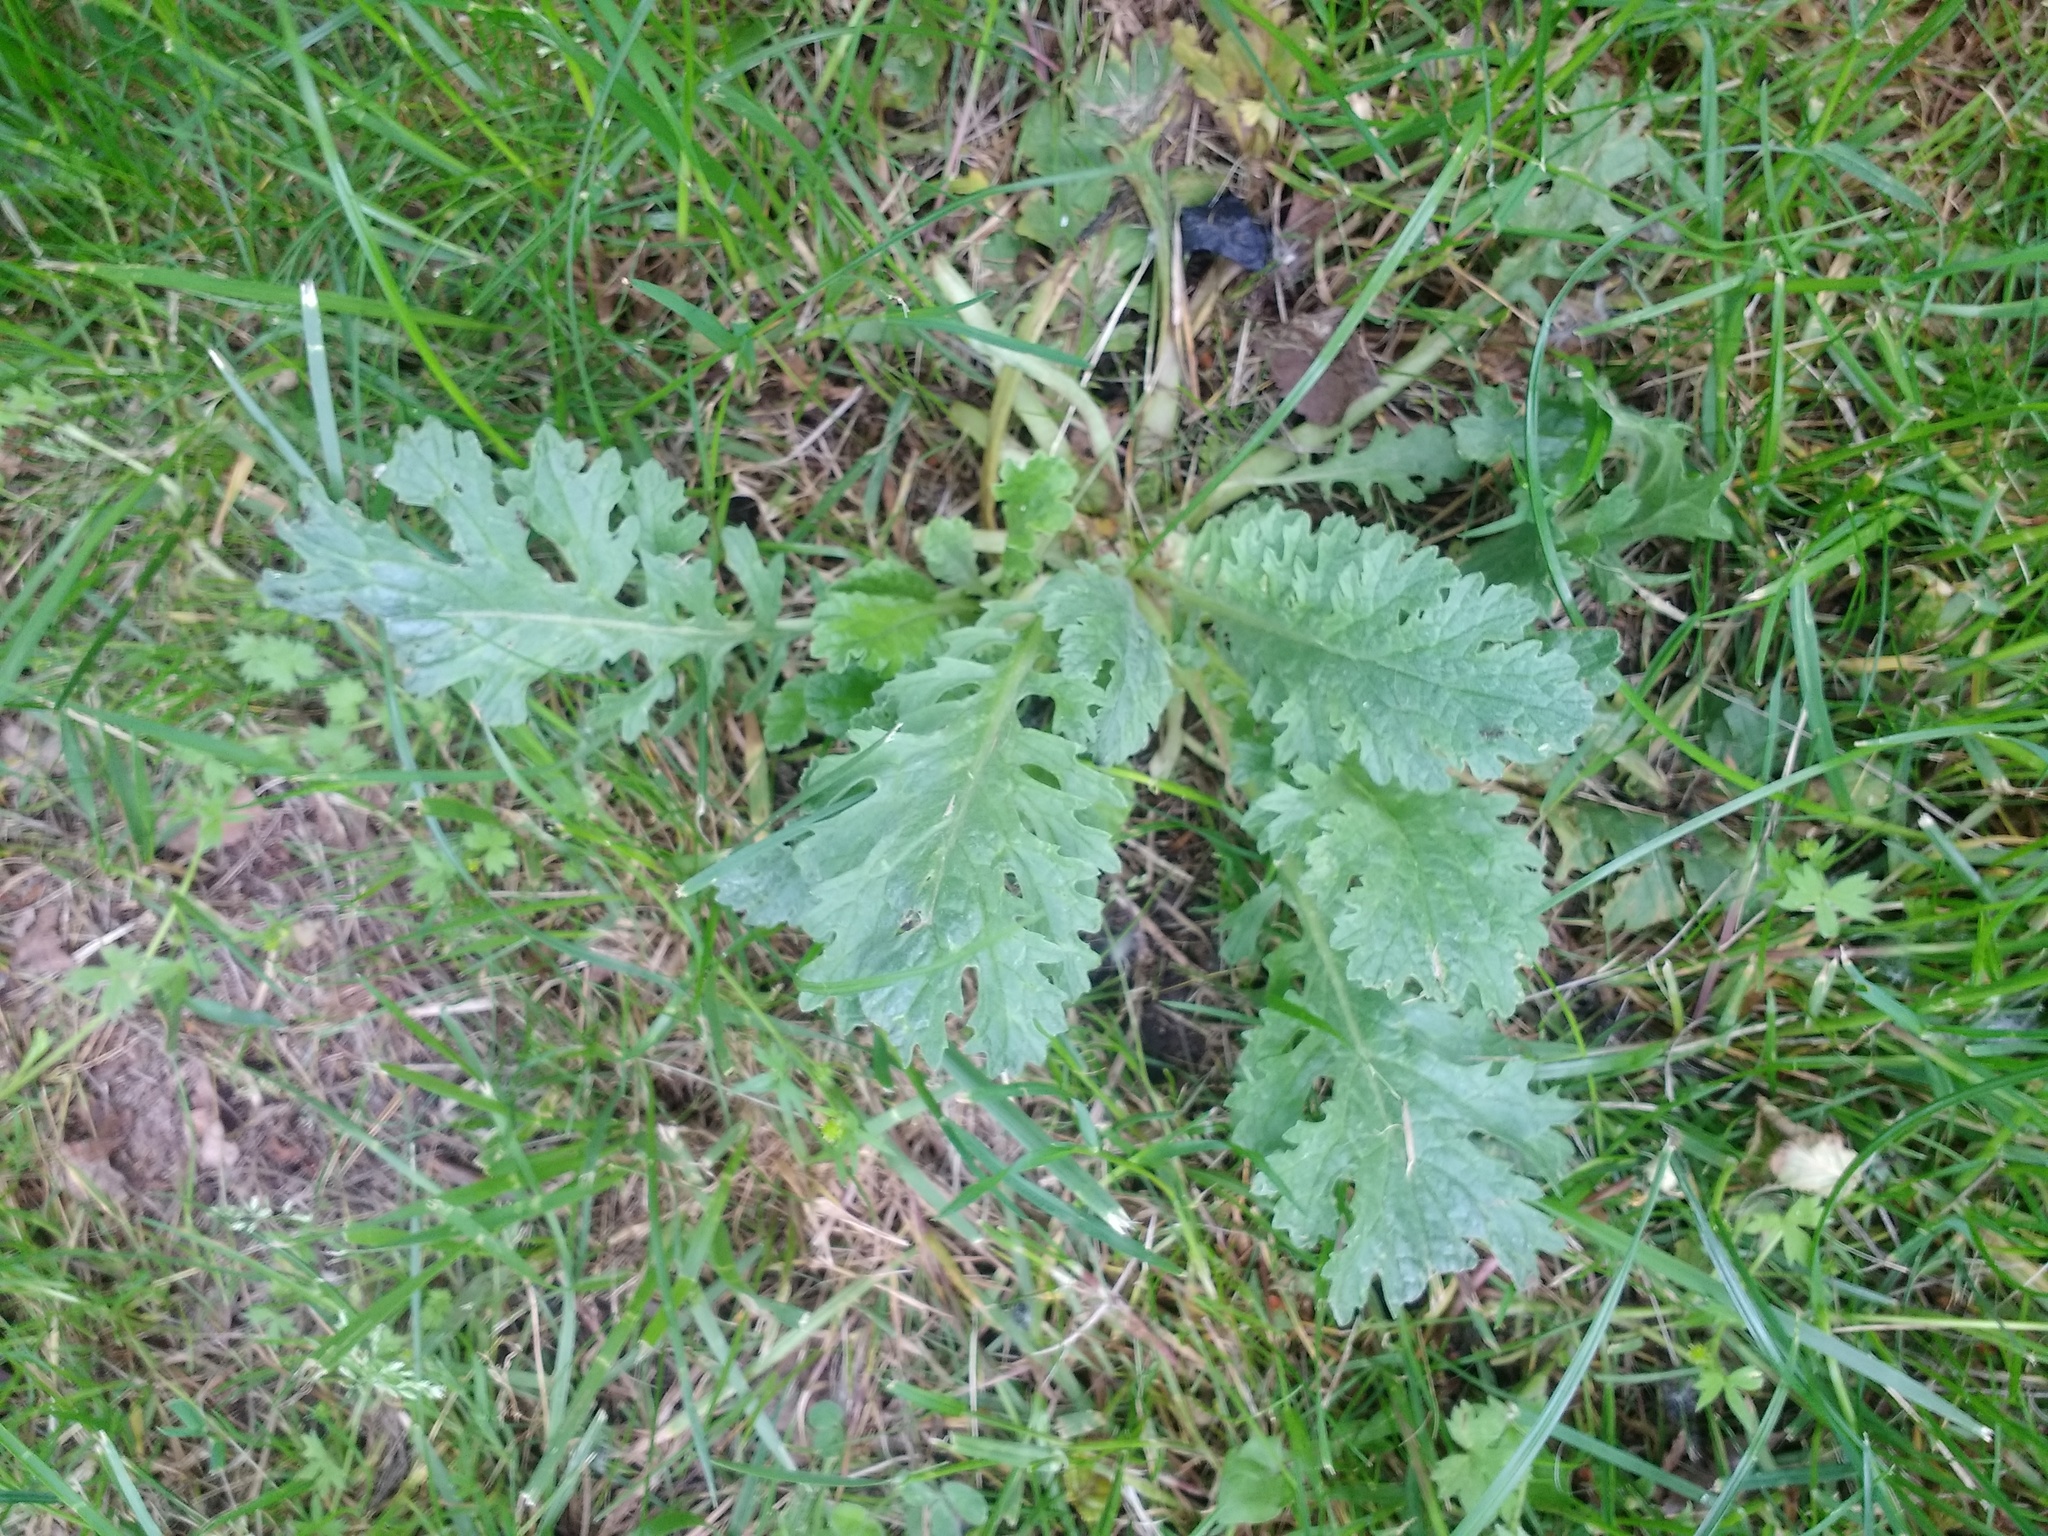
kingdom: Plantae
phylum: Tracheophyta
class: Magnoliopsida
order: Asterales
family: Asteraceae
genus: Jacobaea
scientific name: Jacobaea vulgaris
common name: Stinking willie
